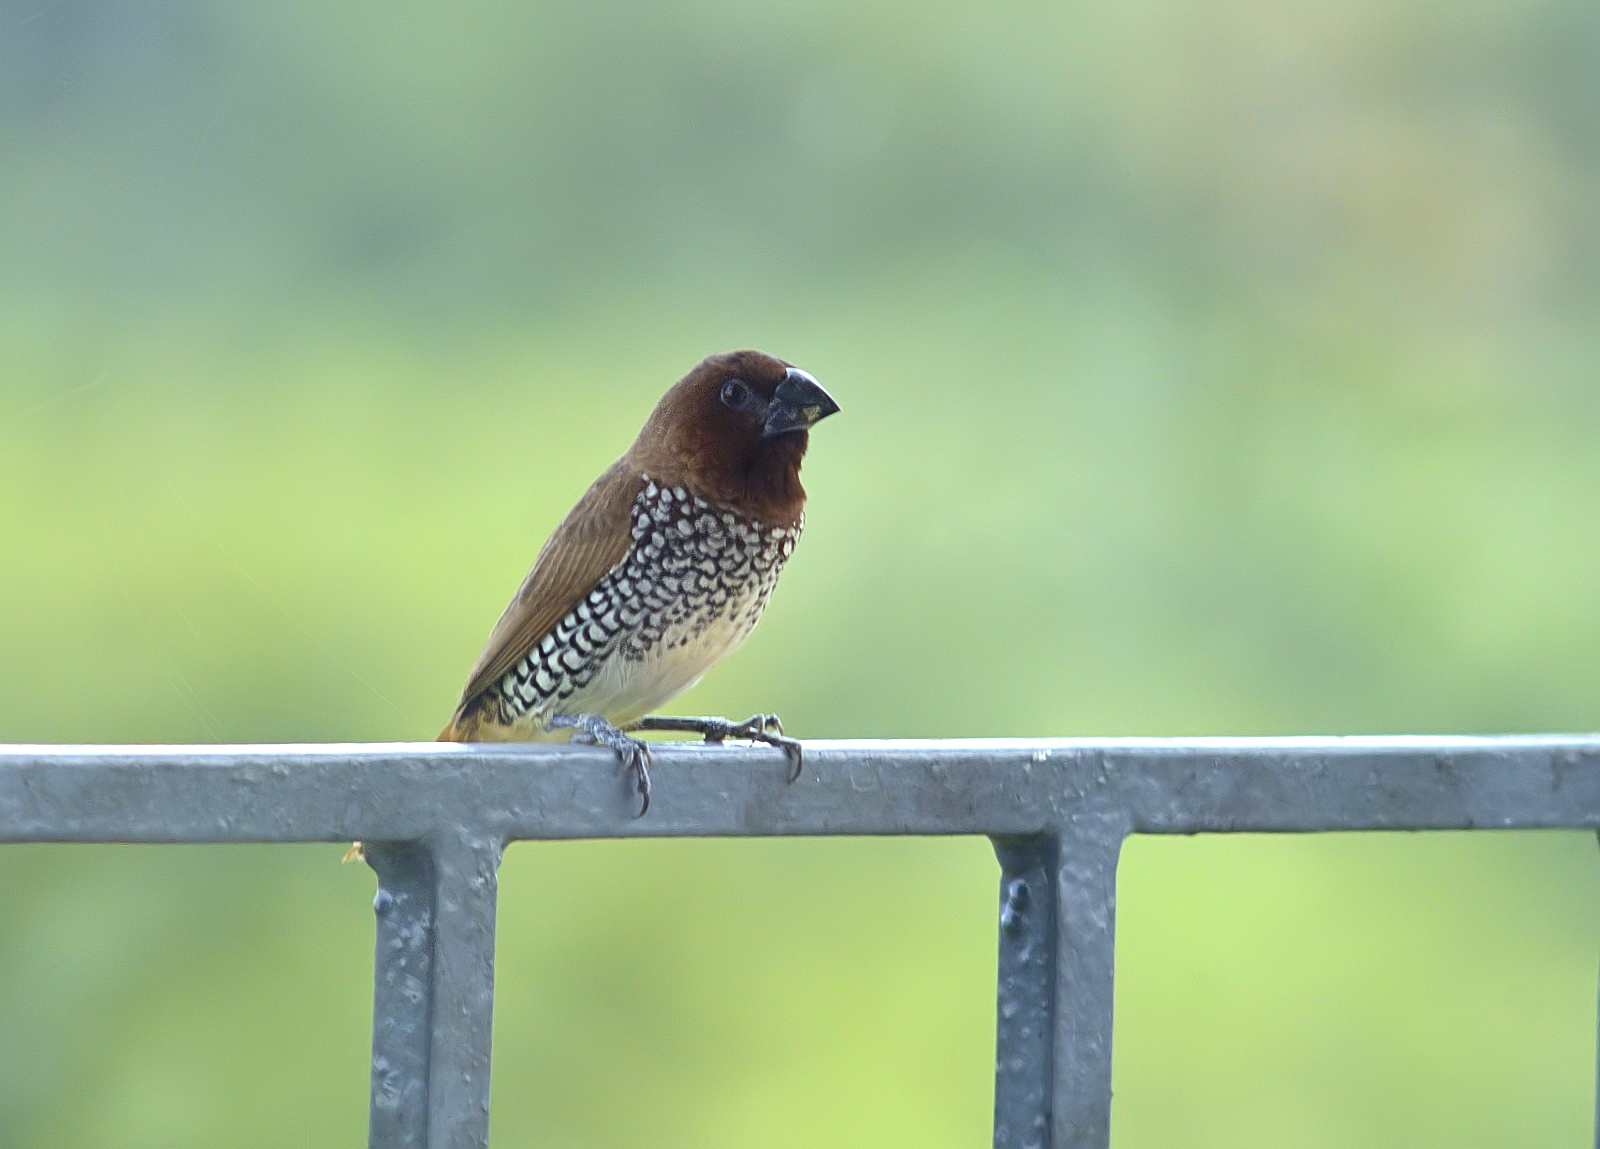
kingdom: Animalia
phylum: Chordata
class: Aves
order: Passeriformes
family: Estrildidae
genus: Lonchura
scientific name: Lonchura punctulata
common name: Scaly-breasted munia
